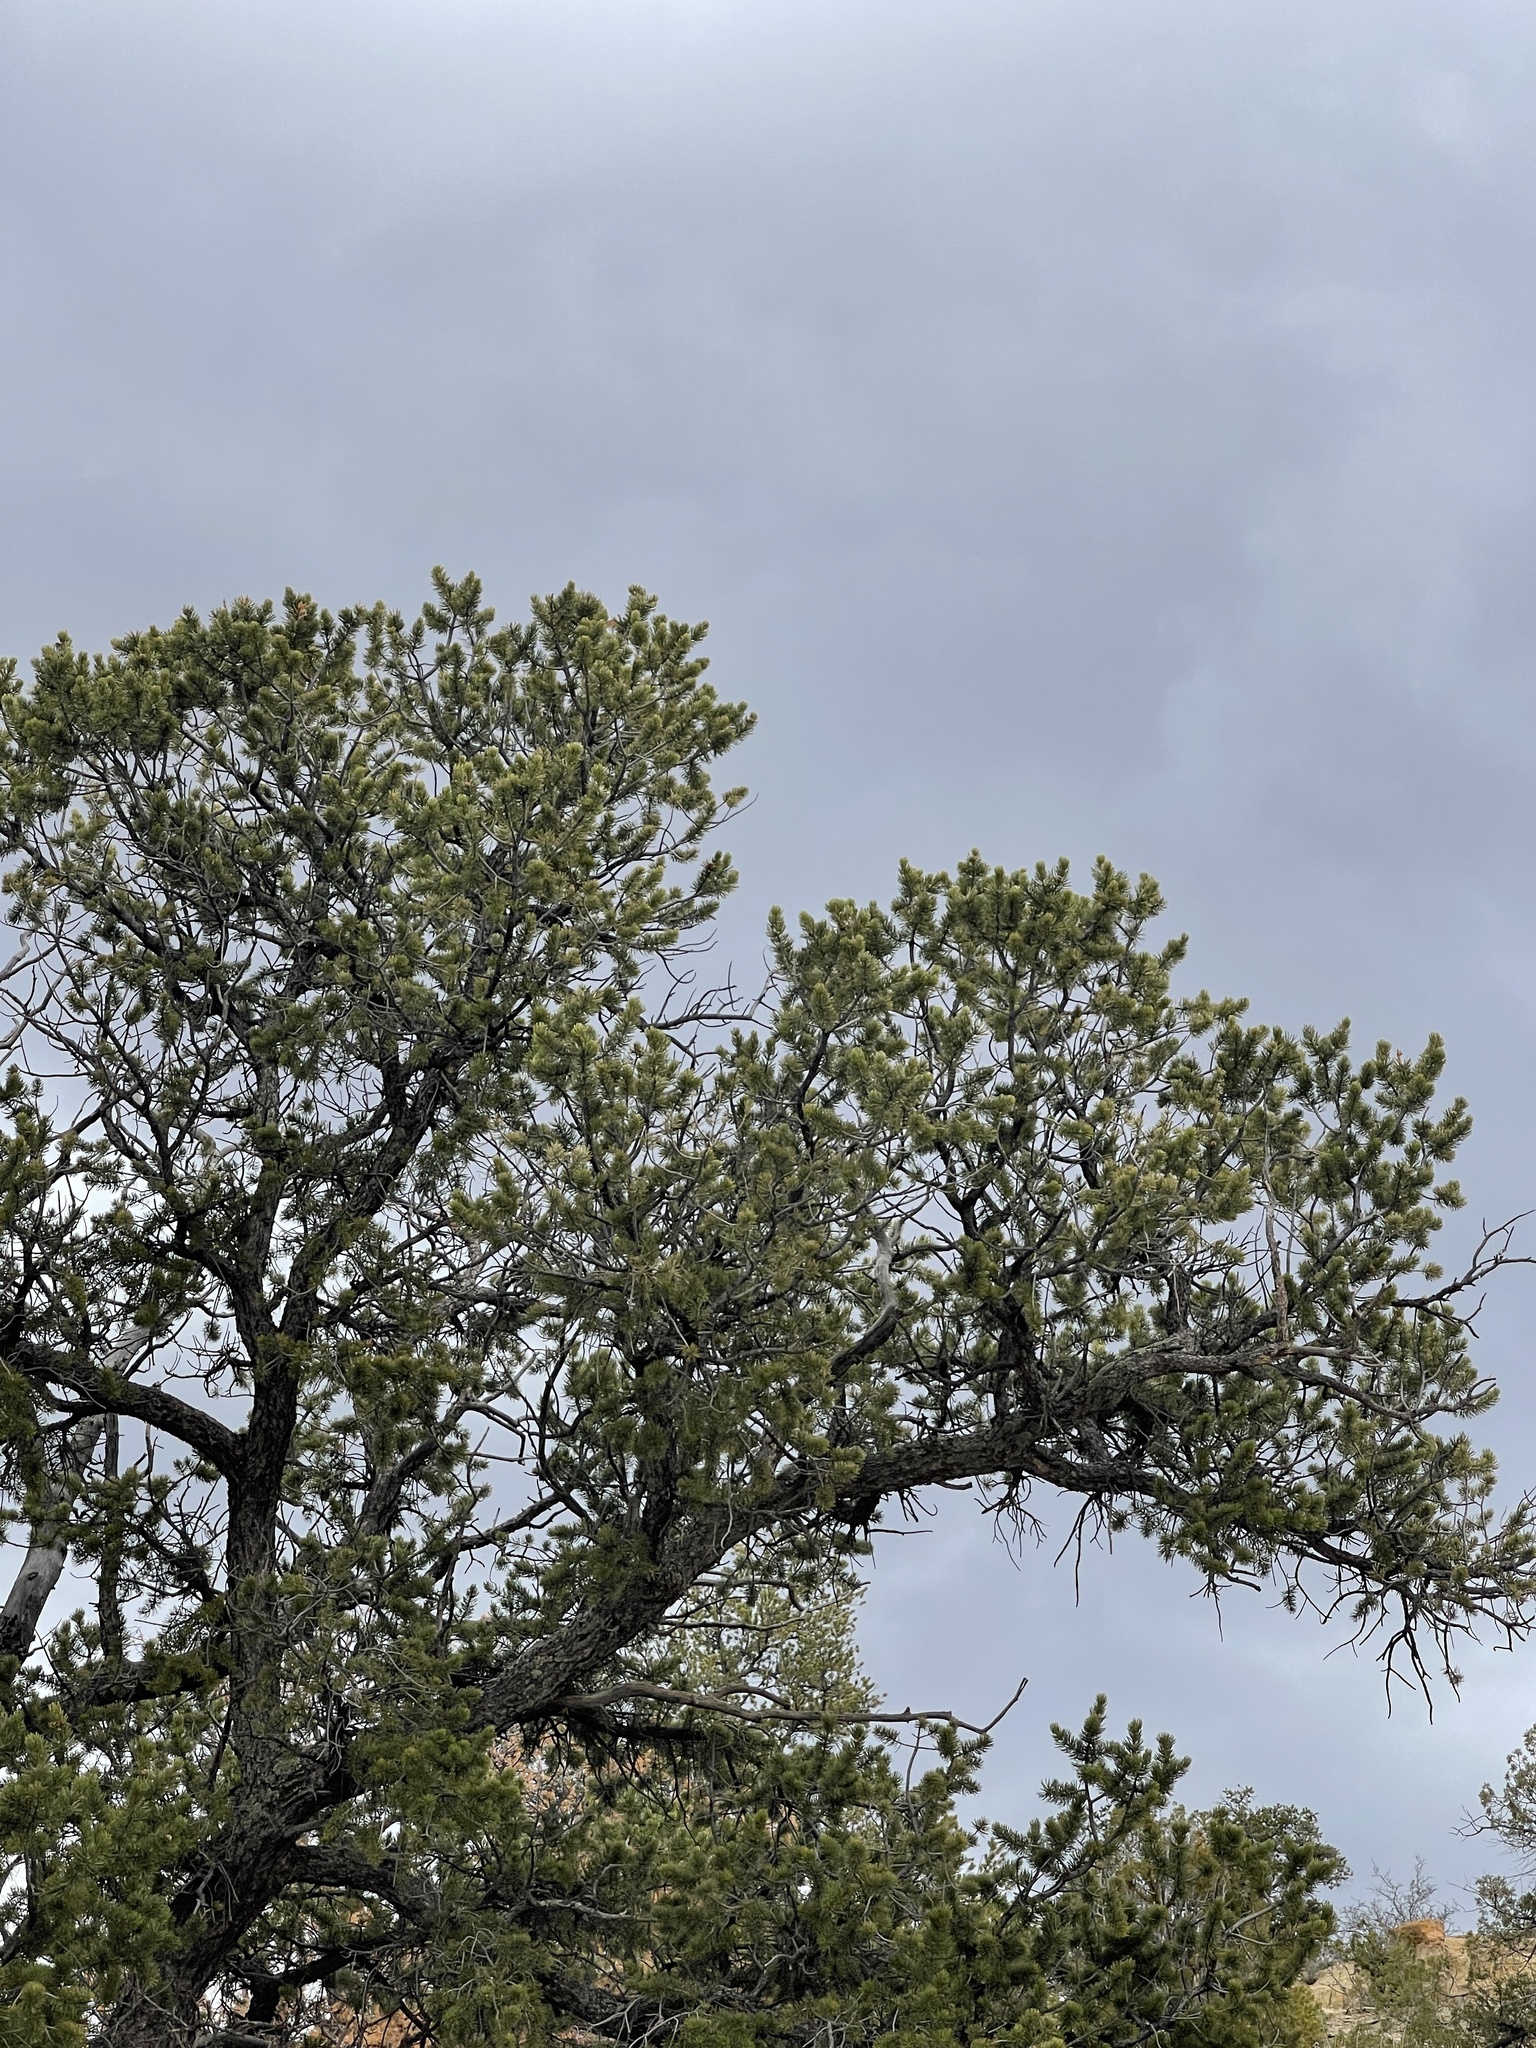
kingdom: Plantae
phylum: Tracheophyta
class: Pinopsida
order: Pinales
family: Pinaceae
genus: Pinus
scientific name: Pinus edulis
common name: Colorado pinyon
